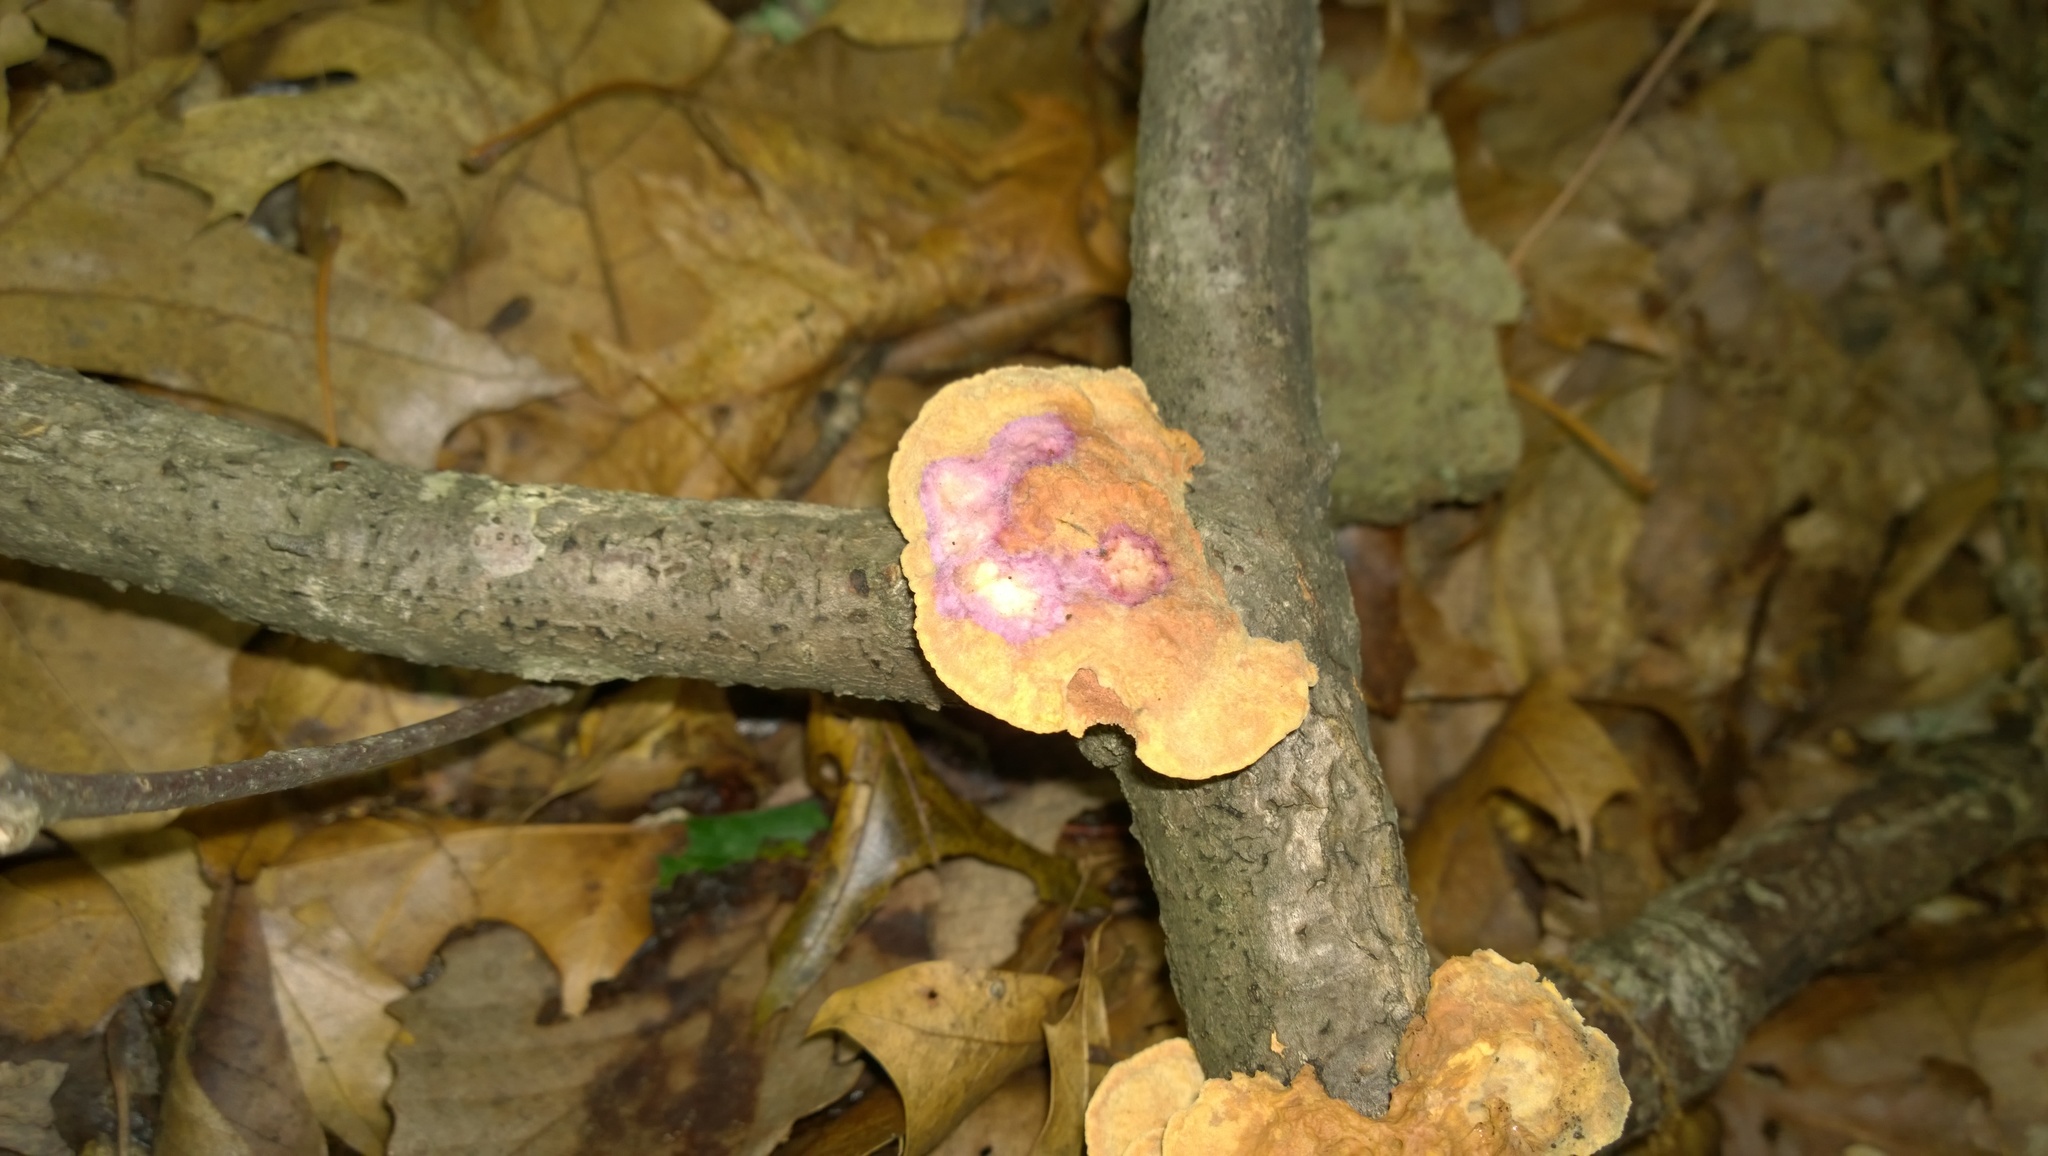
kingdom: Fungi
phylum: Basidiomycota
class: Agaricomycetes
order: Polyporales
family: Phanerochaetaceae
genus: Hapalopilus
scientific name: Hapalopilus rutilans
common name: Tender nesting polypore
